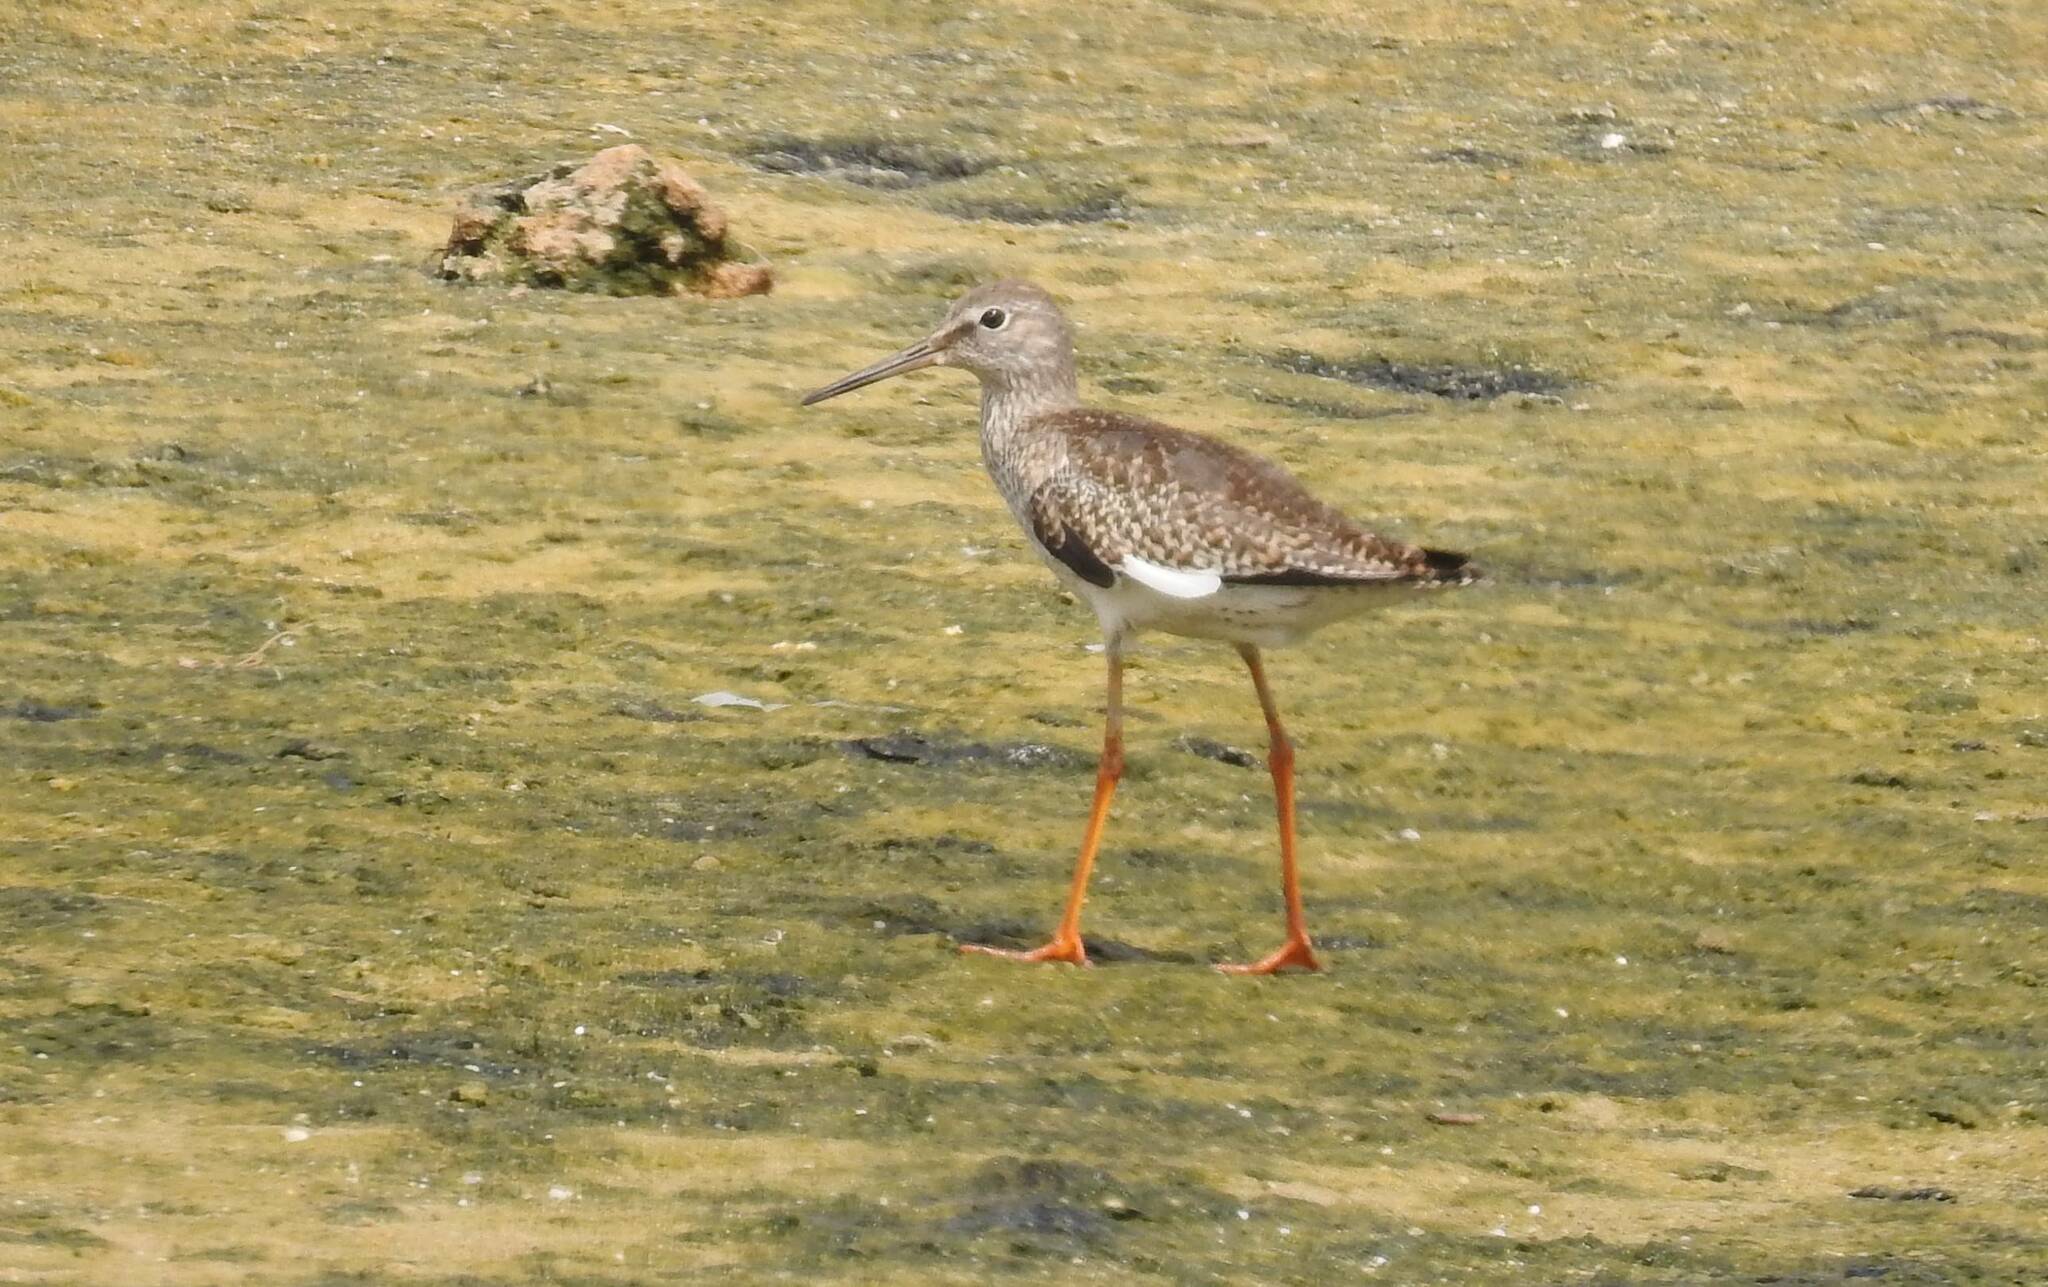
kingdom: Animalia
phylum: Chordata
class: Aves
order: Charadriiformes
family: Scolopacidae
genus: Tringa
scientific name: Tringa totanus
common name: Common redshank
